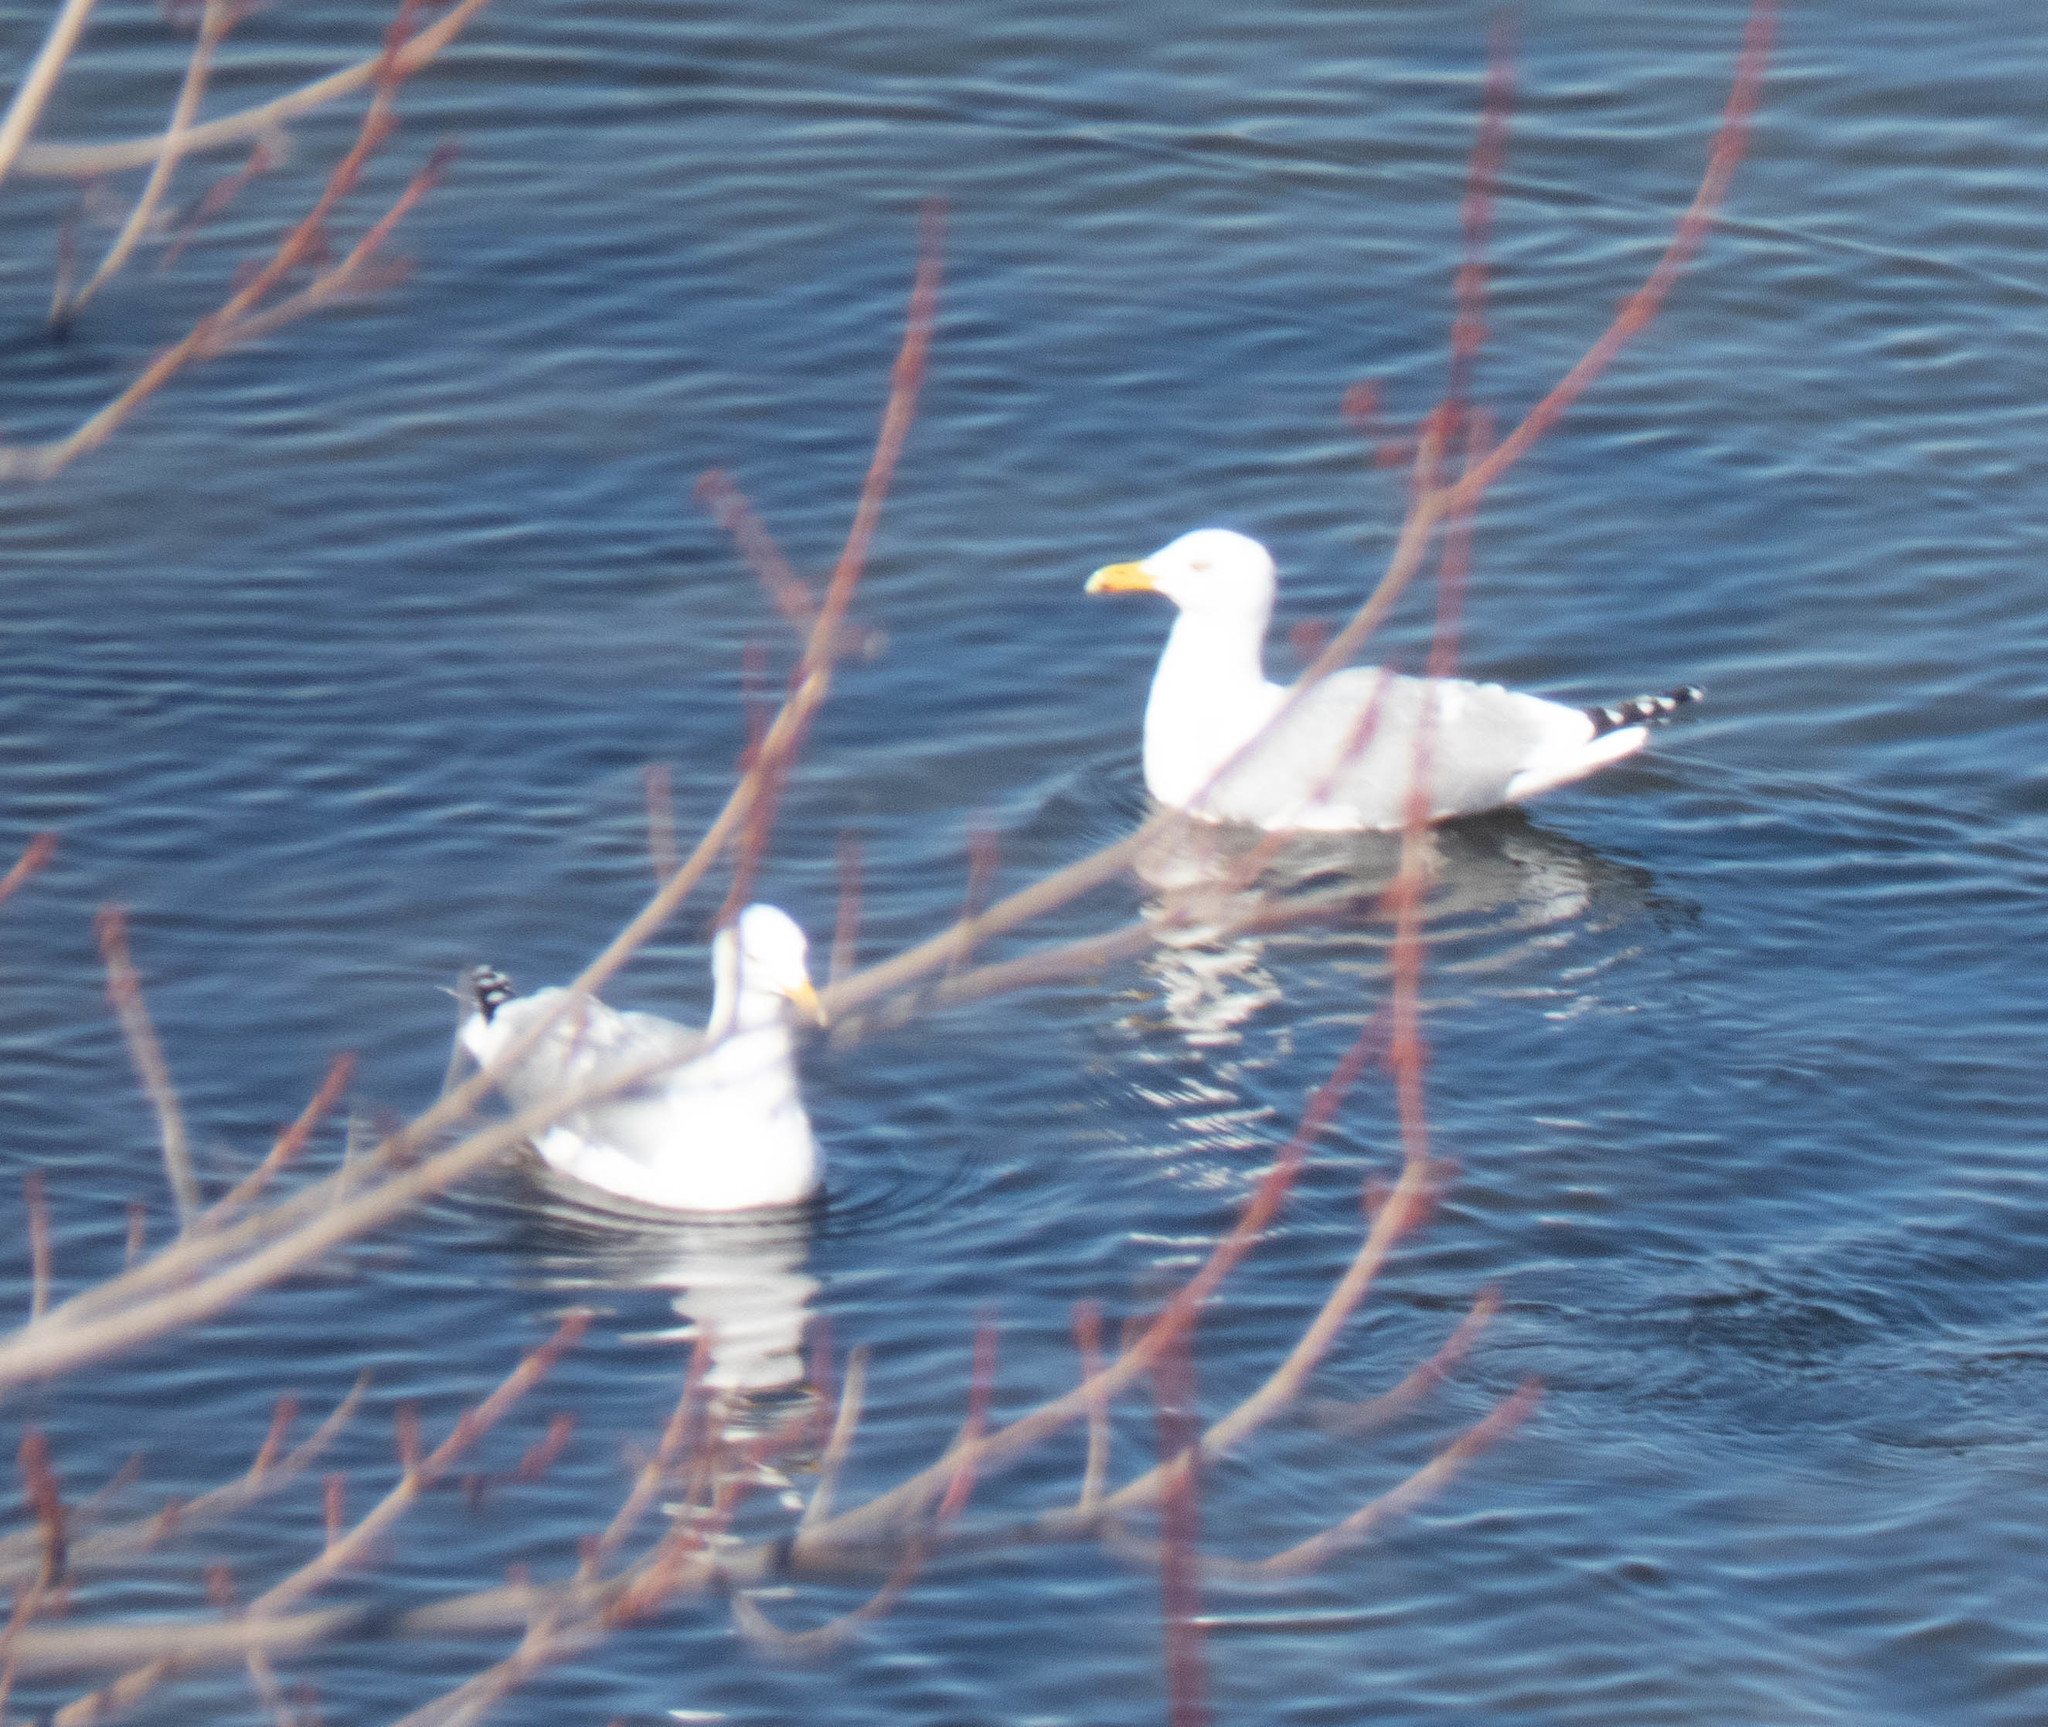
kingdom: Animalia
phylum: Chordata
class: Aves
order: Charadriiformes
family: Laridae
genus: Larus
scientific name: Larus argentatus
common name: Herring gull
